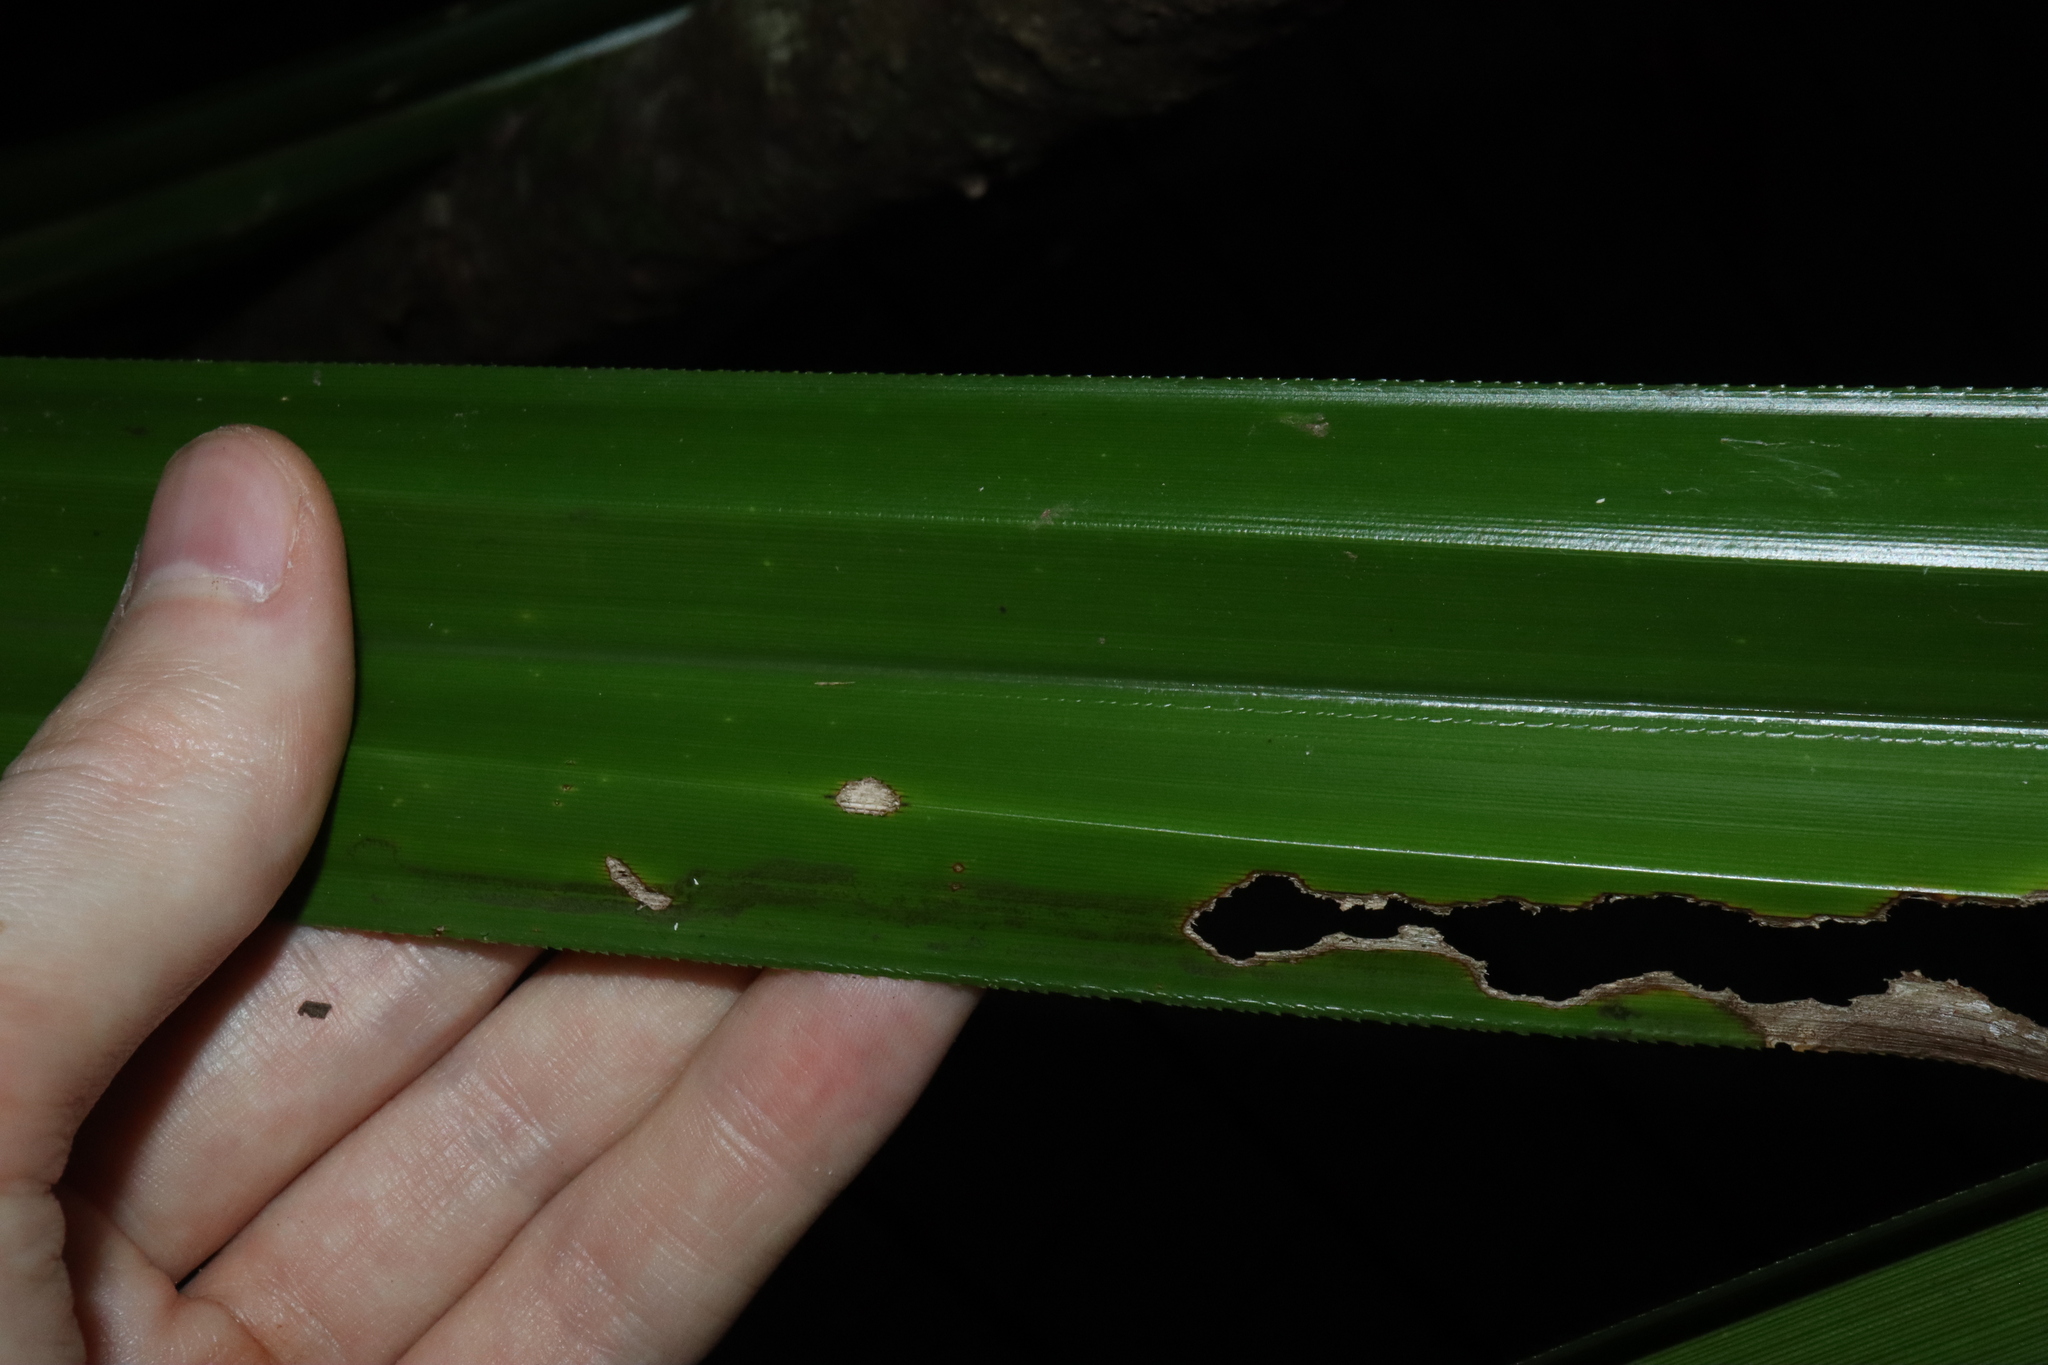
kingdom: Plantae
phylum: Tracheophyta
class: Liliopsida
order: Poales
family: Cyperaceae
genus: Scirpodendron
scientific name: Scirpodendron ghaeri
